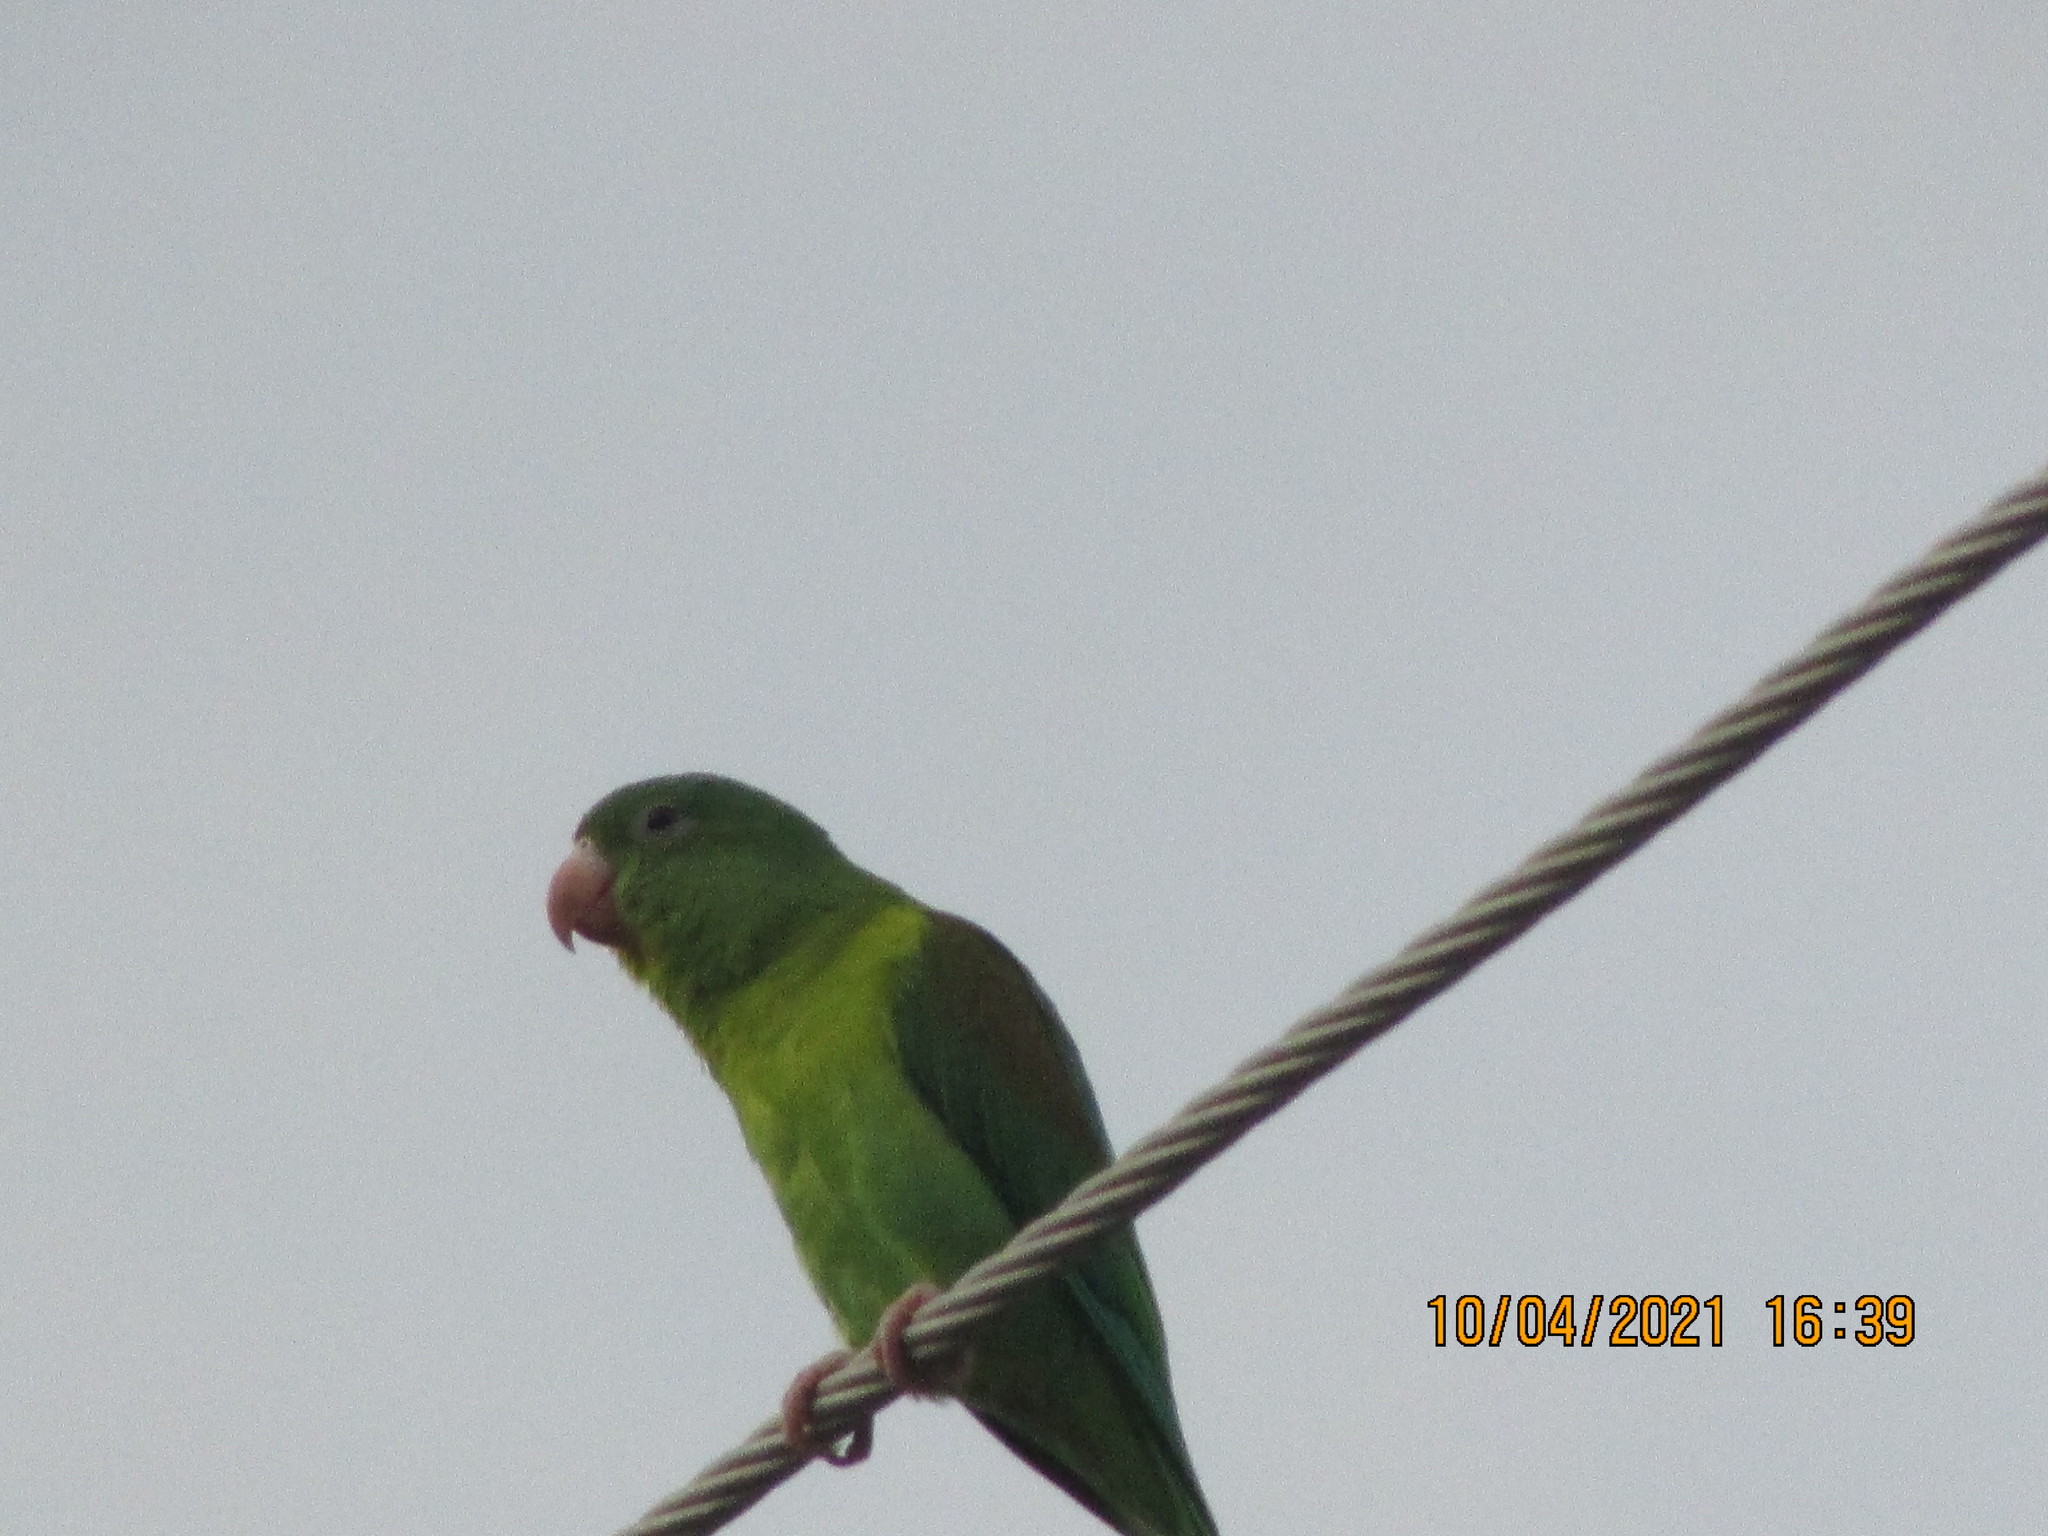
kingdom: Animalia
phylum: Chordata
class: Aves
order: Psittaciformes
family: Psittacidae
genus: Brotogeris
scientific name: Brotogeris jugularis
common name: Orange-chinned parakeet
